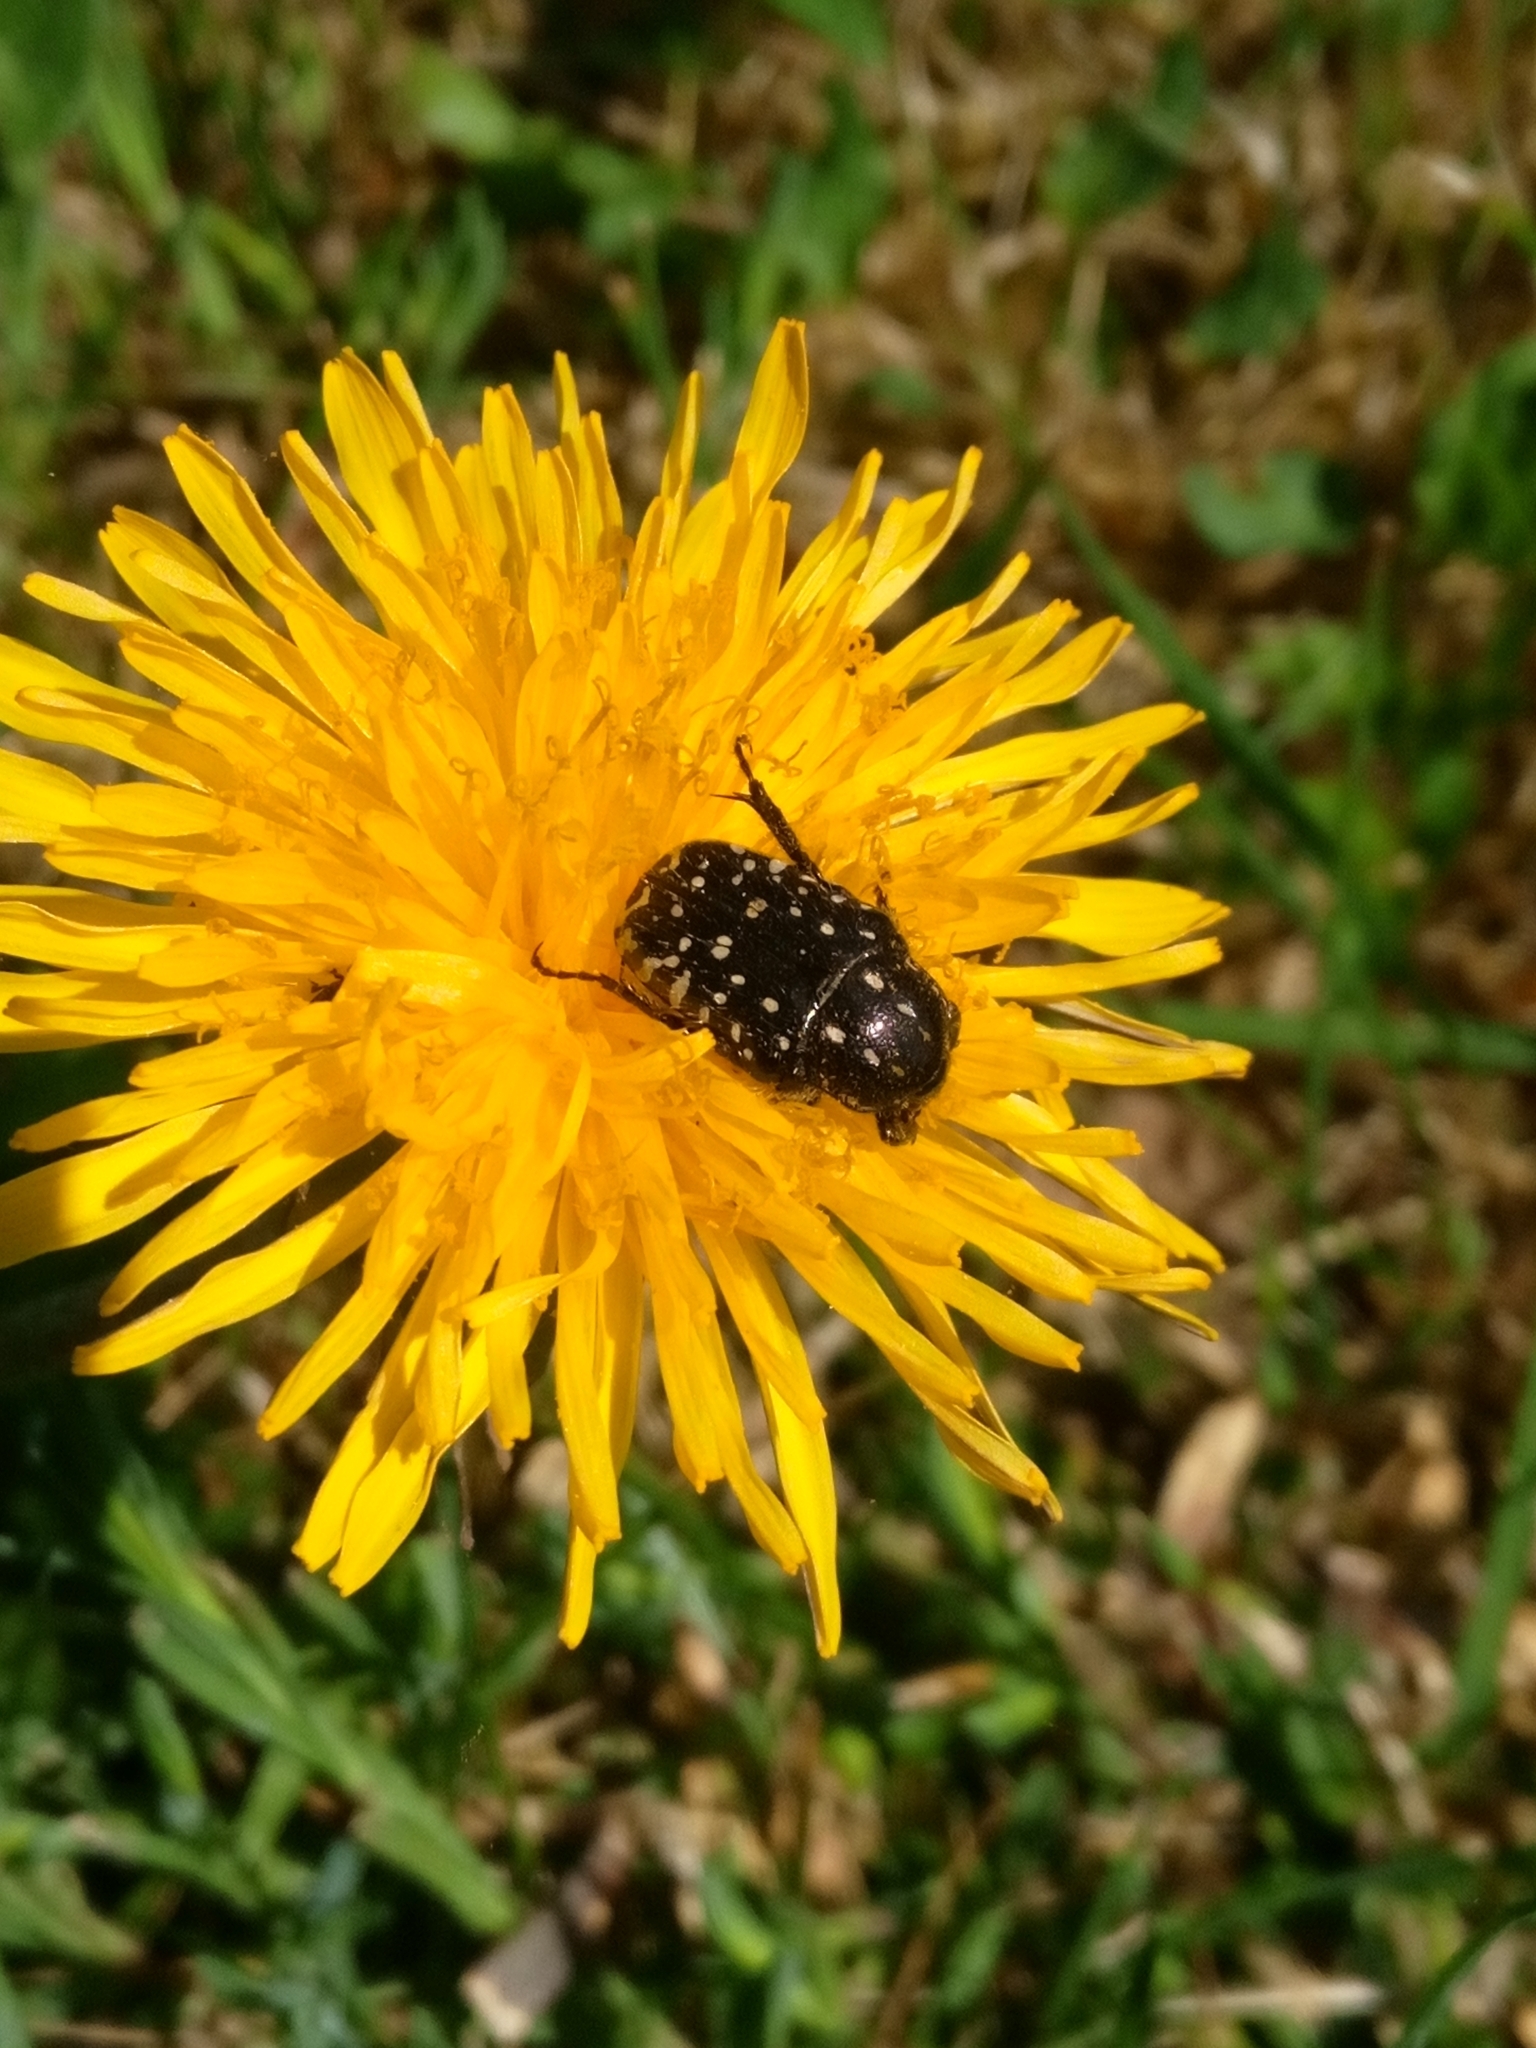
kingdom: Animalia
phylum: Arthropoda
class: Insecta
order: Coleoptera
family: Scarabaeidae
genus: Oxythyrea
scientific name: Oxythyrea funesta
